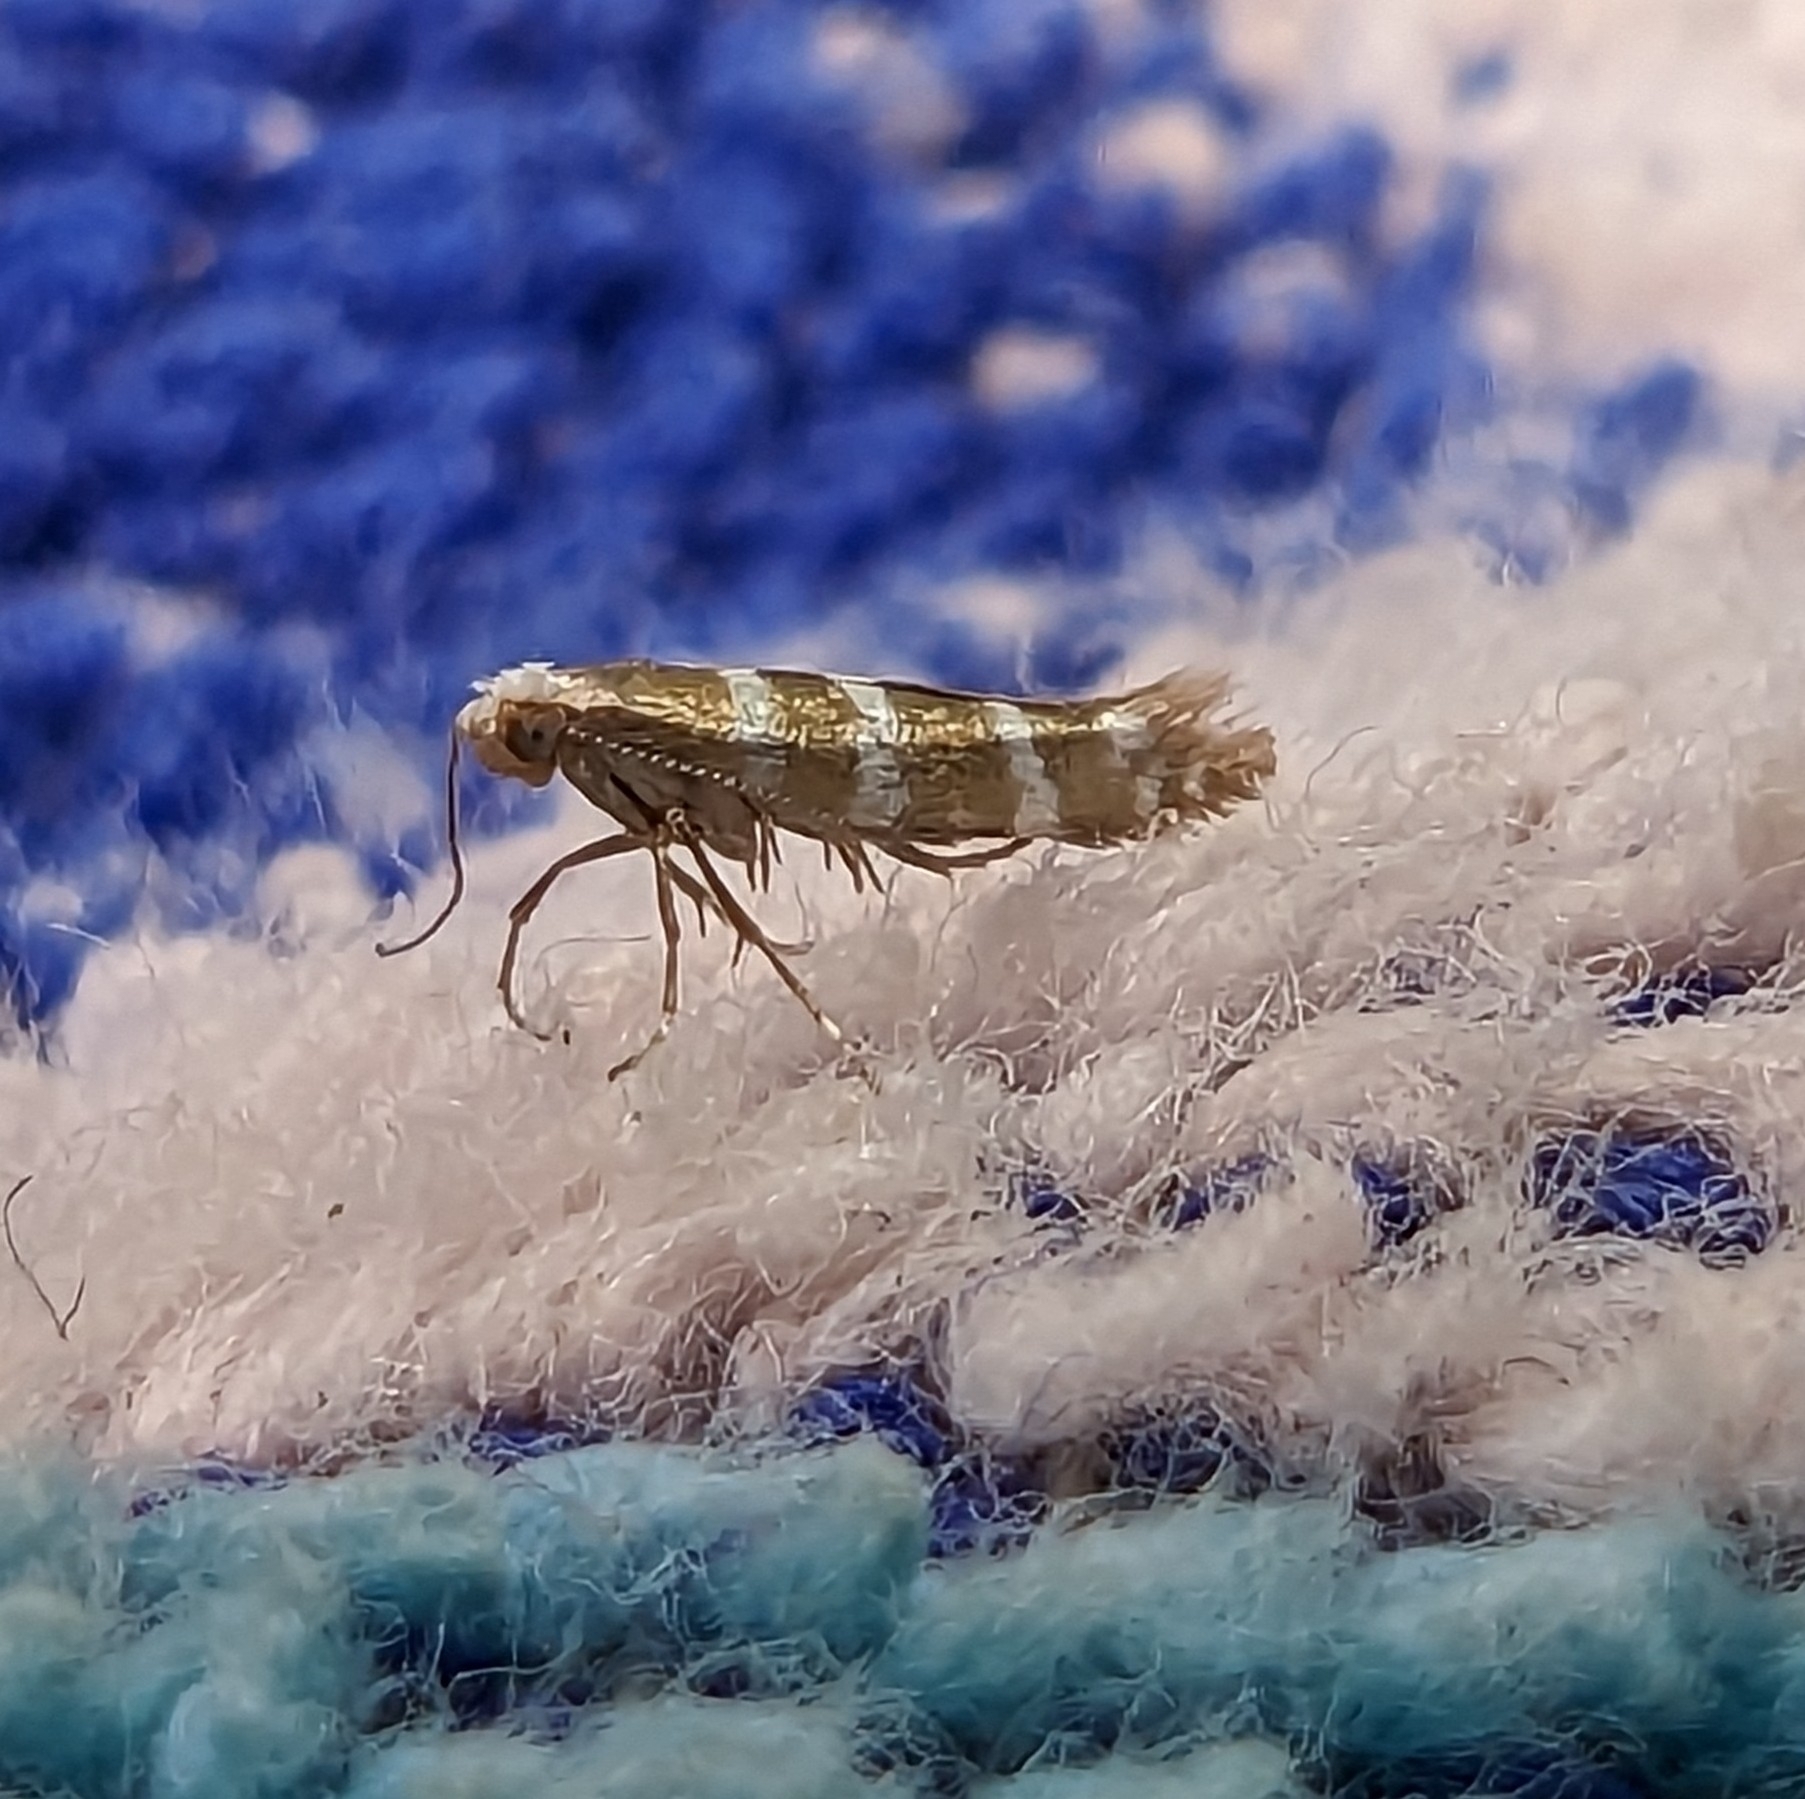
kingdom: Animalia
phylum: Arthropoda
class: Insecta
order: Lepidoptera
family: Argyresthiidae
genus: Argyresthia
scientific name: Argyresthia trifasciata
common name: Triple-barred argent
